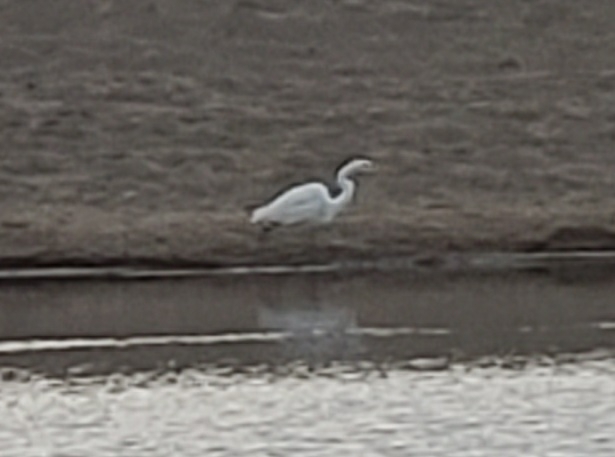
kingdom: Animalia
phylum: Chordata
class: Aves
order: Pelecaniformes
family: Ardeidae
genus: Ardea
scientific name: Ardea alba
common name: Great egret
